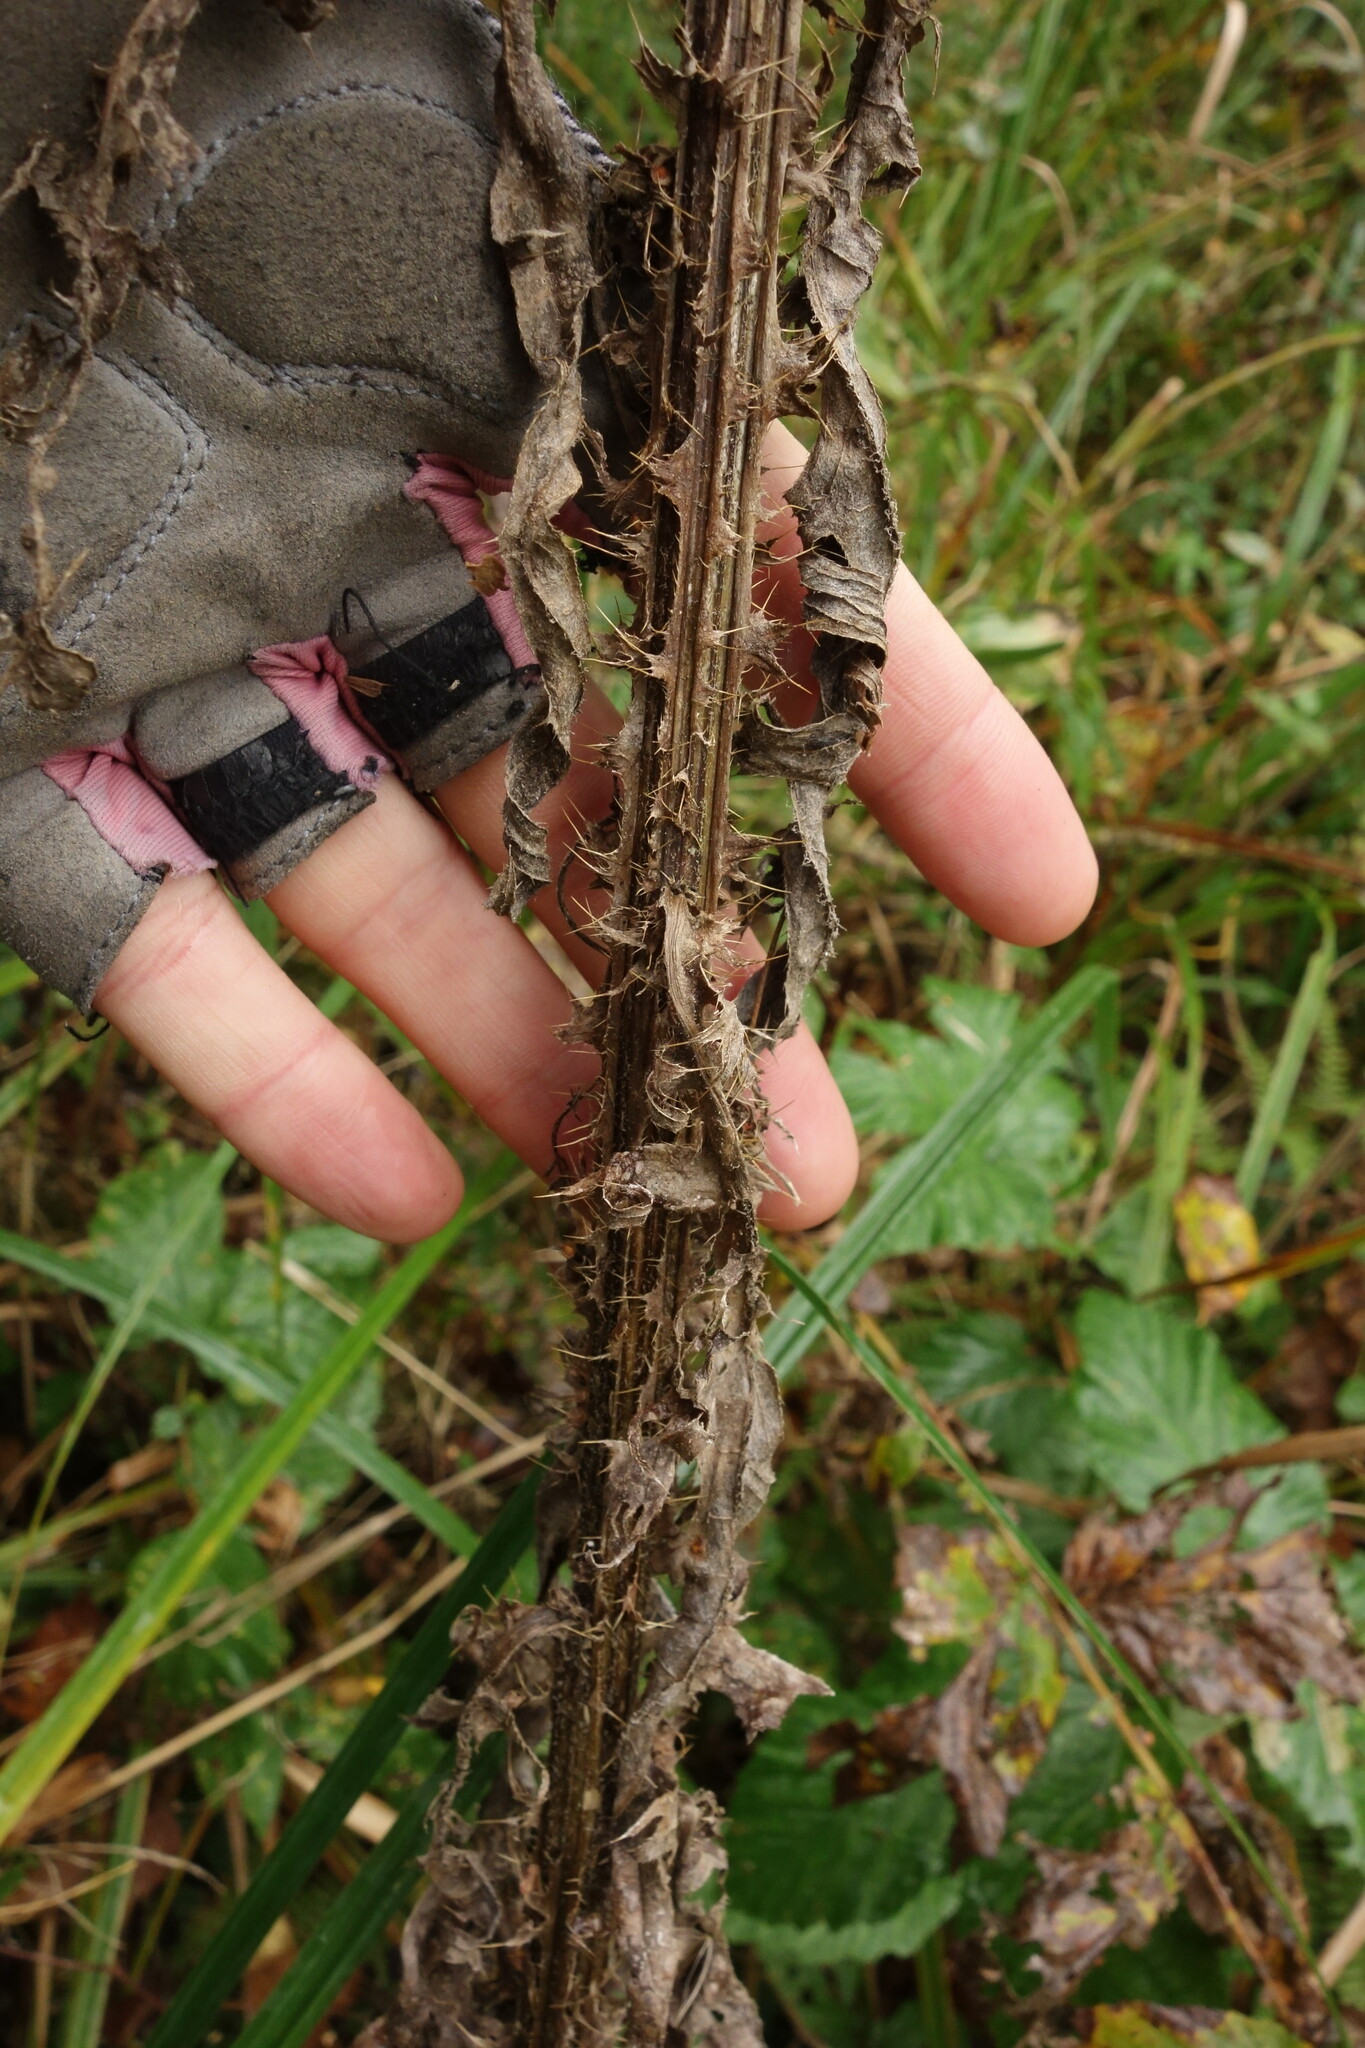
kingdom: Plantae
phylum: Tracheophyta
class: Magnoliopsida
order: Asterales
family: Asteraceae
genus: Cirsium
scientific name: Cirsium palustre
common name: Marsh thistle
